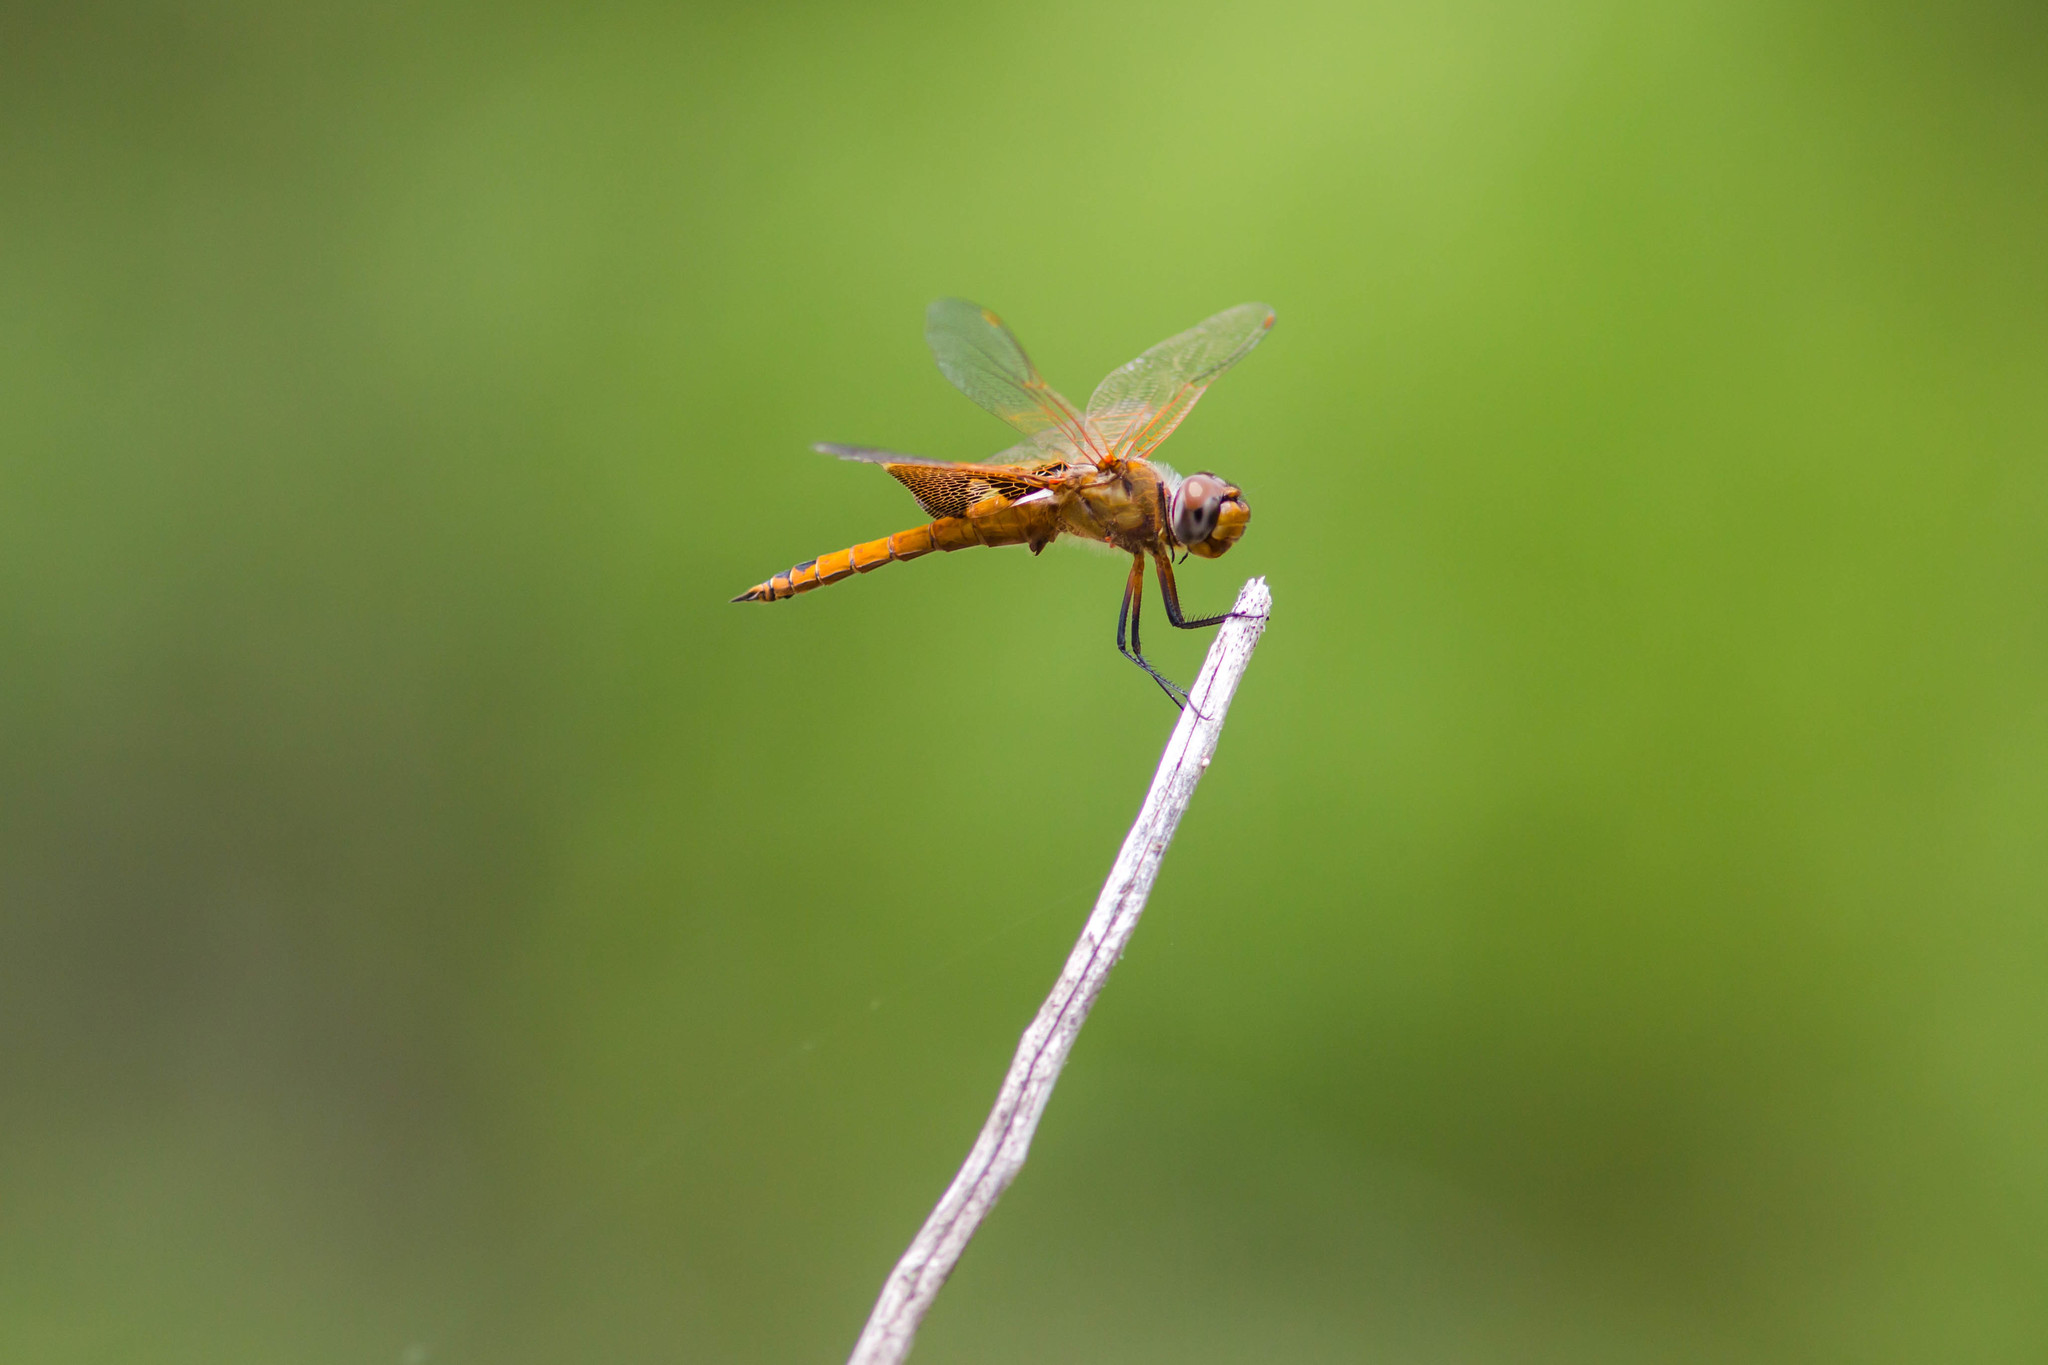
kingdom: Animalia
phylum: Arthropoda
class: Insecta
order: Odonata
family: Libellulidae
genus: Tramea
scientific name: Tramea onusta
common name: Red saddlebags
